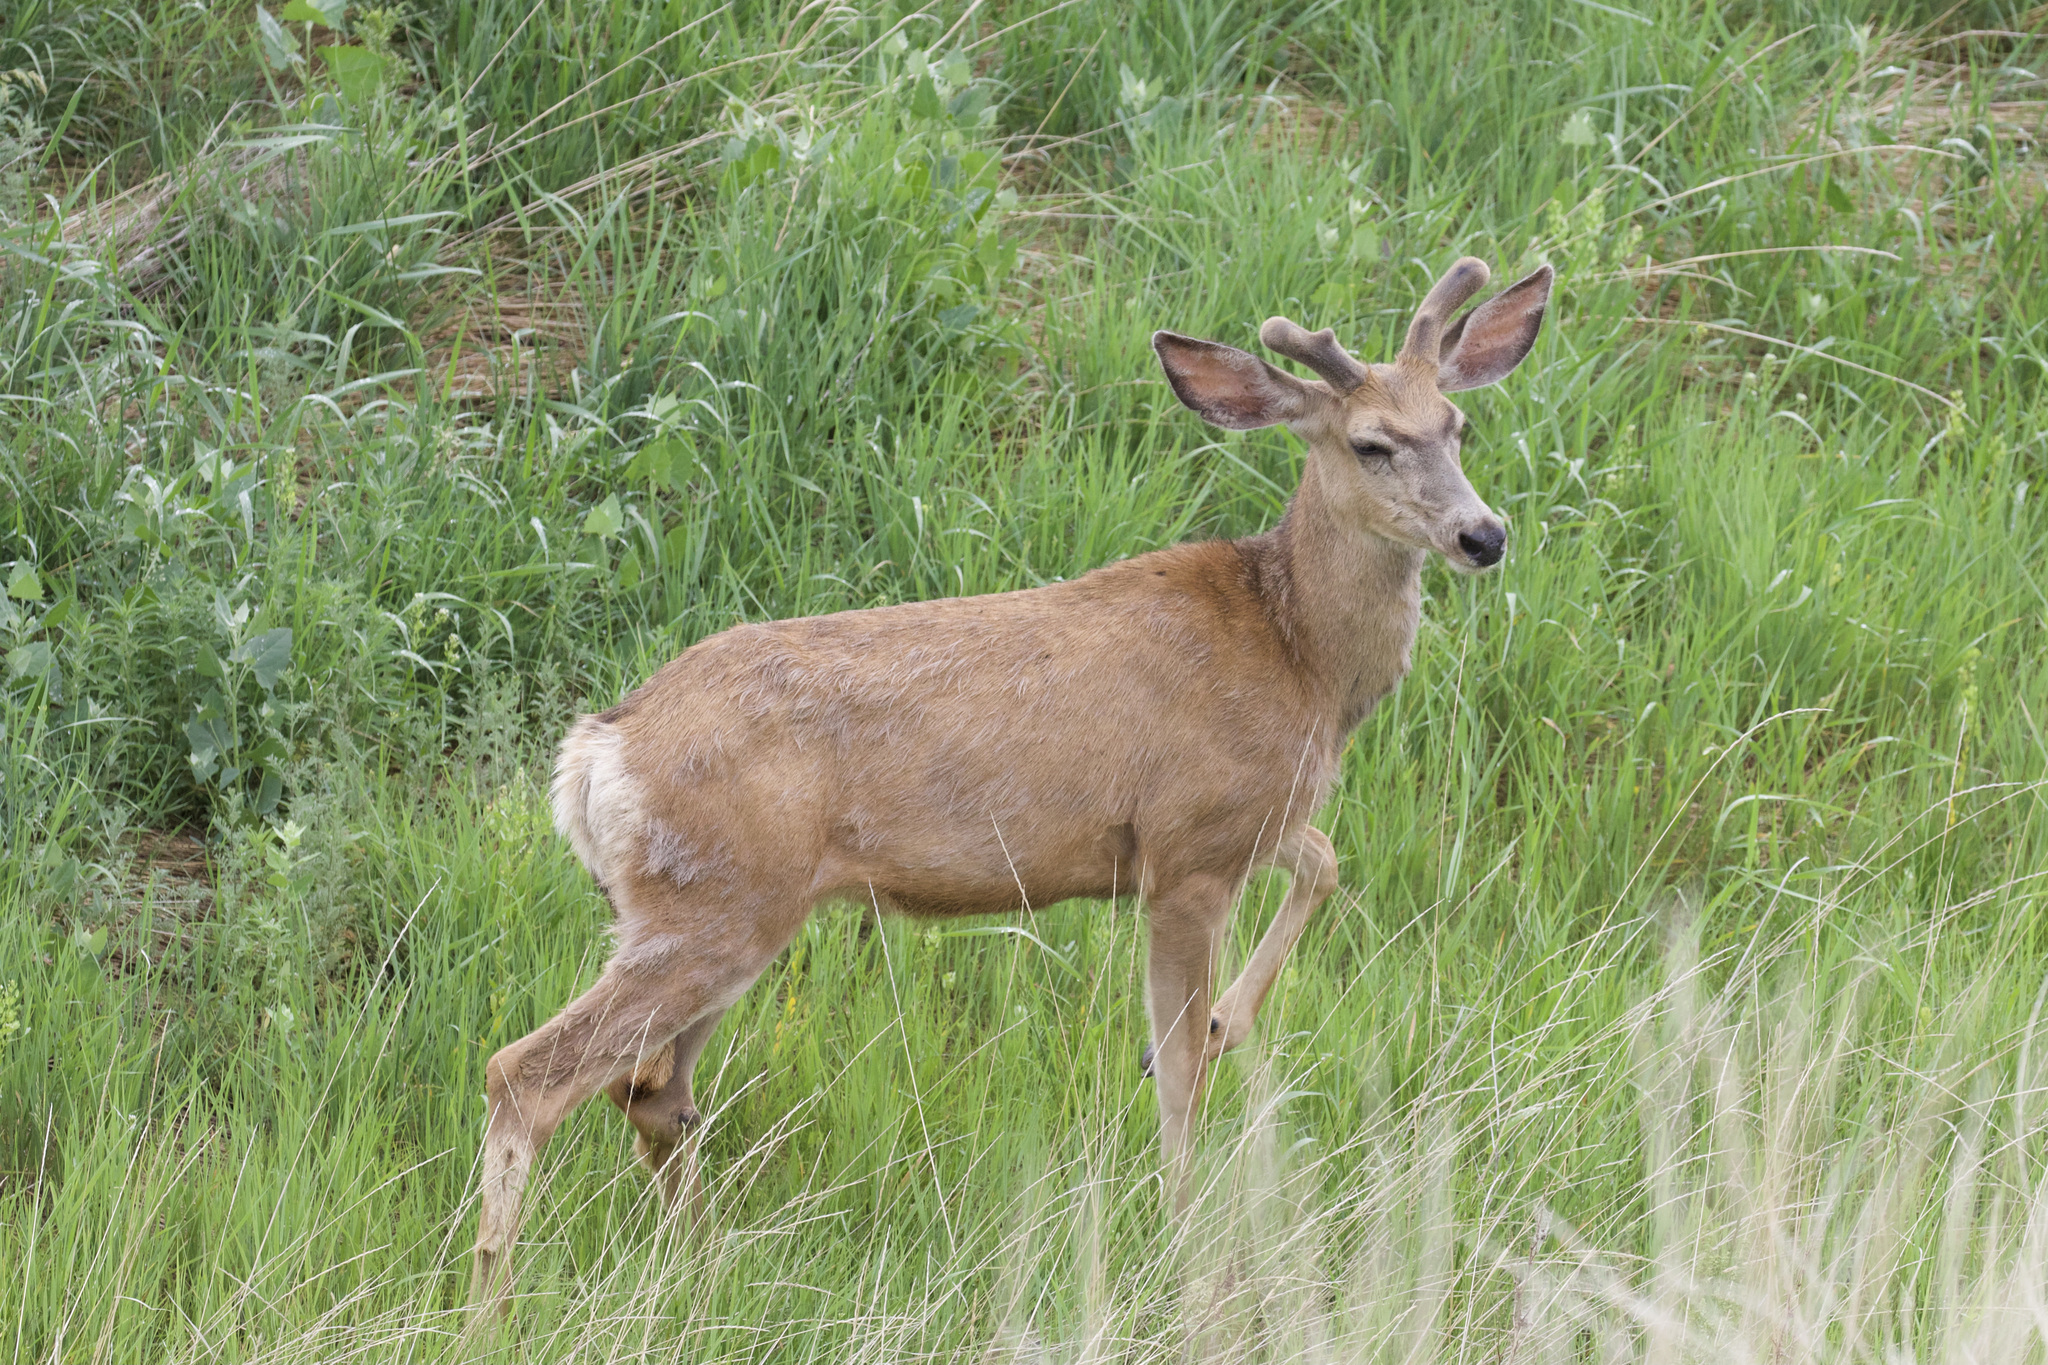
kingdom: Animalia
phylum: Chordata
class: Mammalia
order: Artiodactyla
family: Cervidae
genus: Odocoileus
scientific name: Odocoileus hemionus
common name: Mule deer
